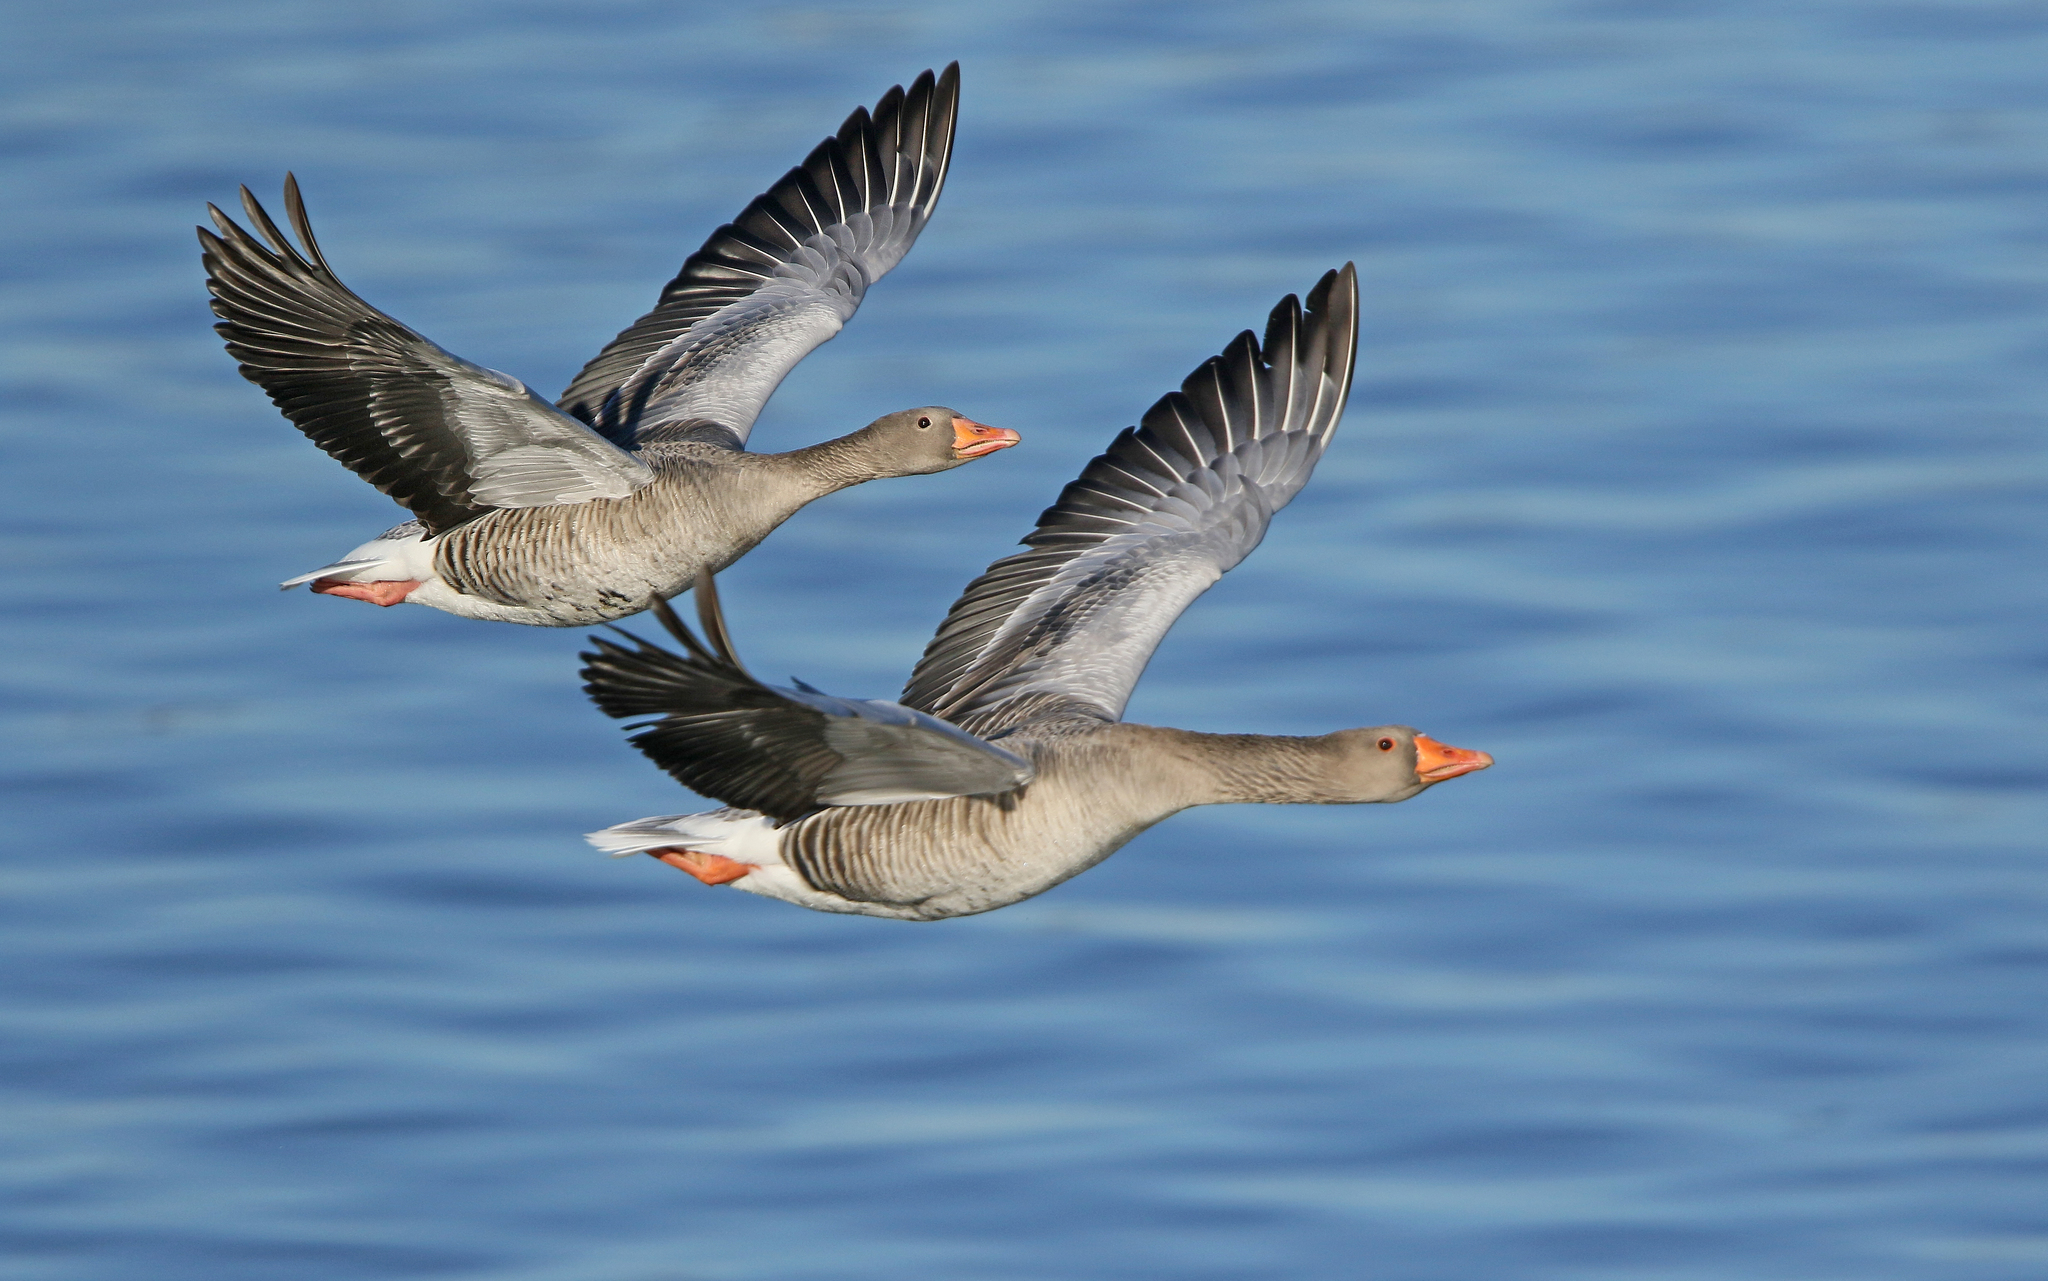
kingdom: Animalia
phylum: Chordata
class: Aves
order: Anseriformes
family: Anatidae
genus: Anser
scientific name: Anser anser
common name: Greylag goose
